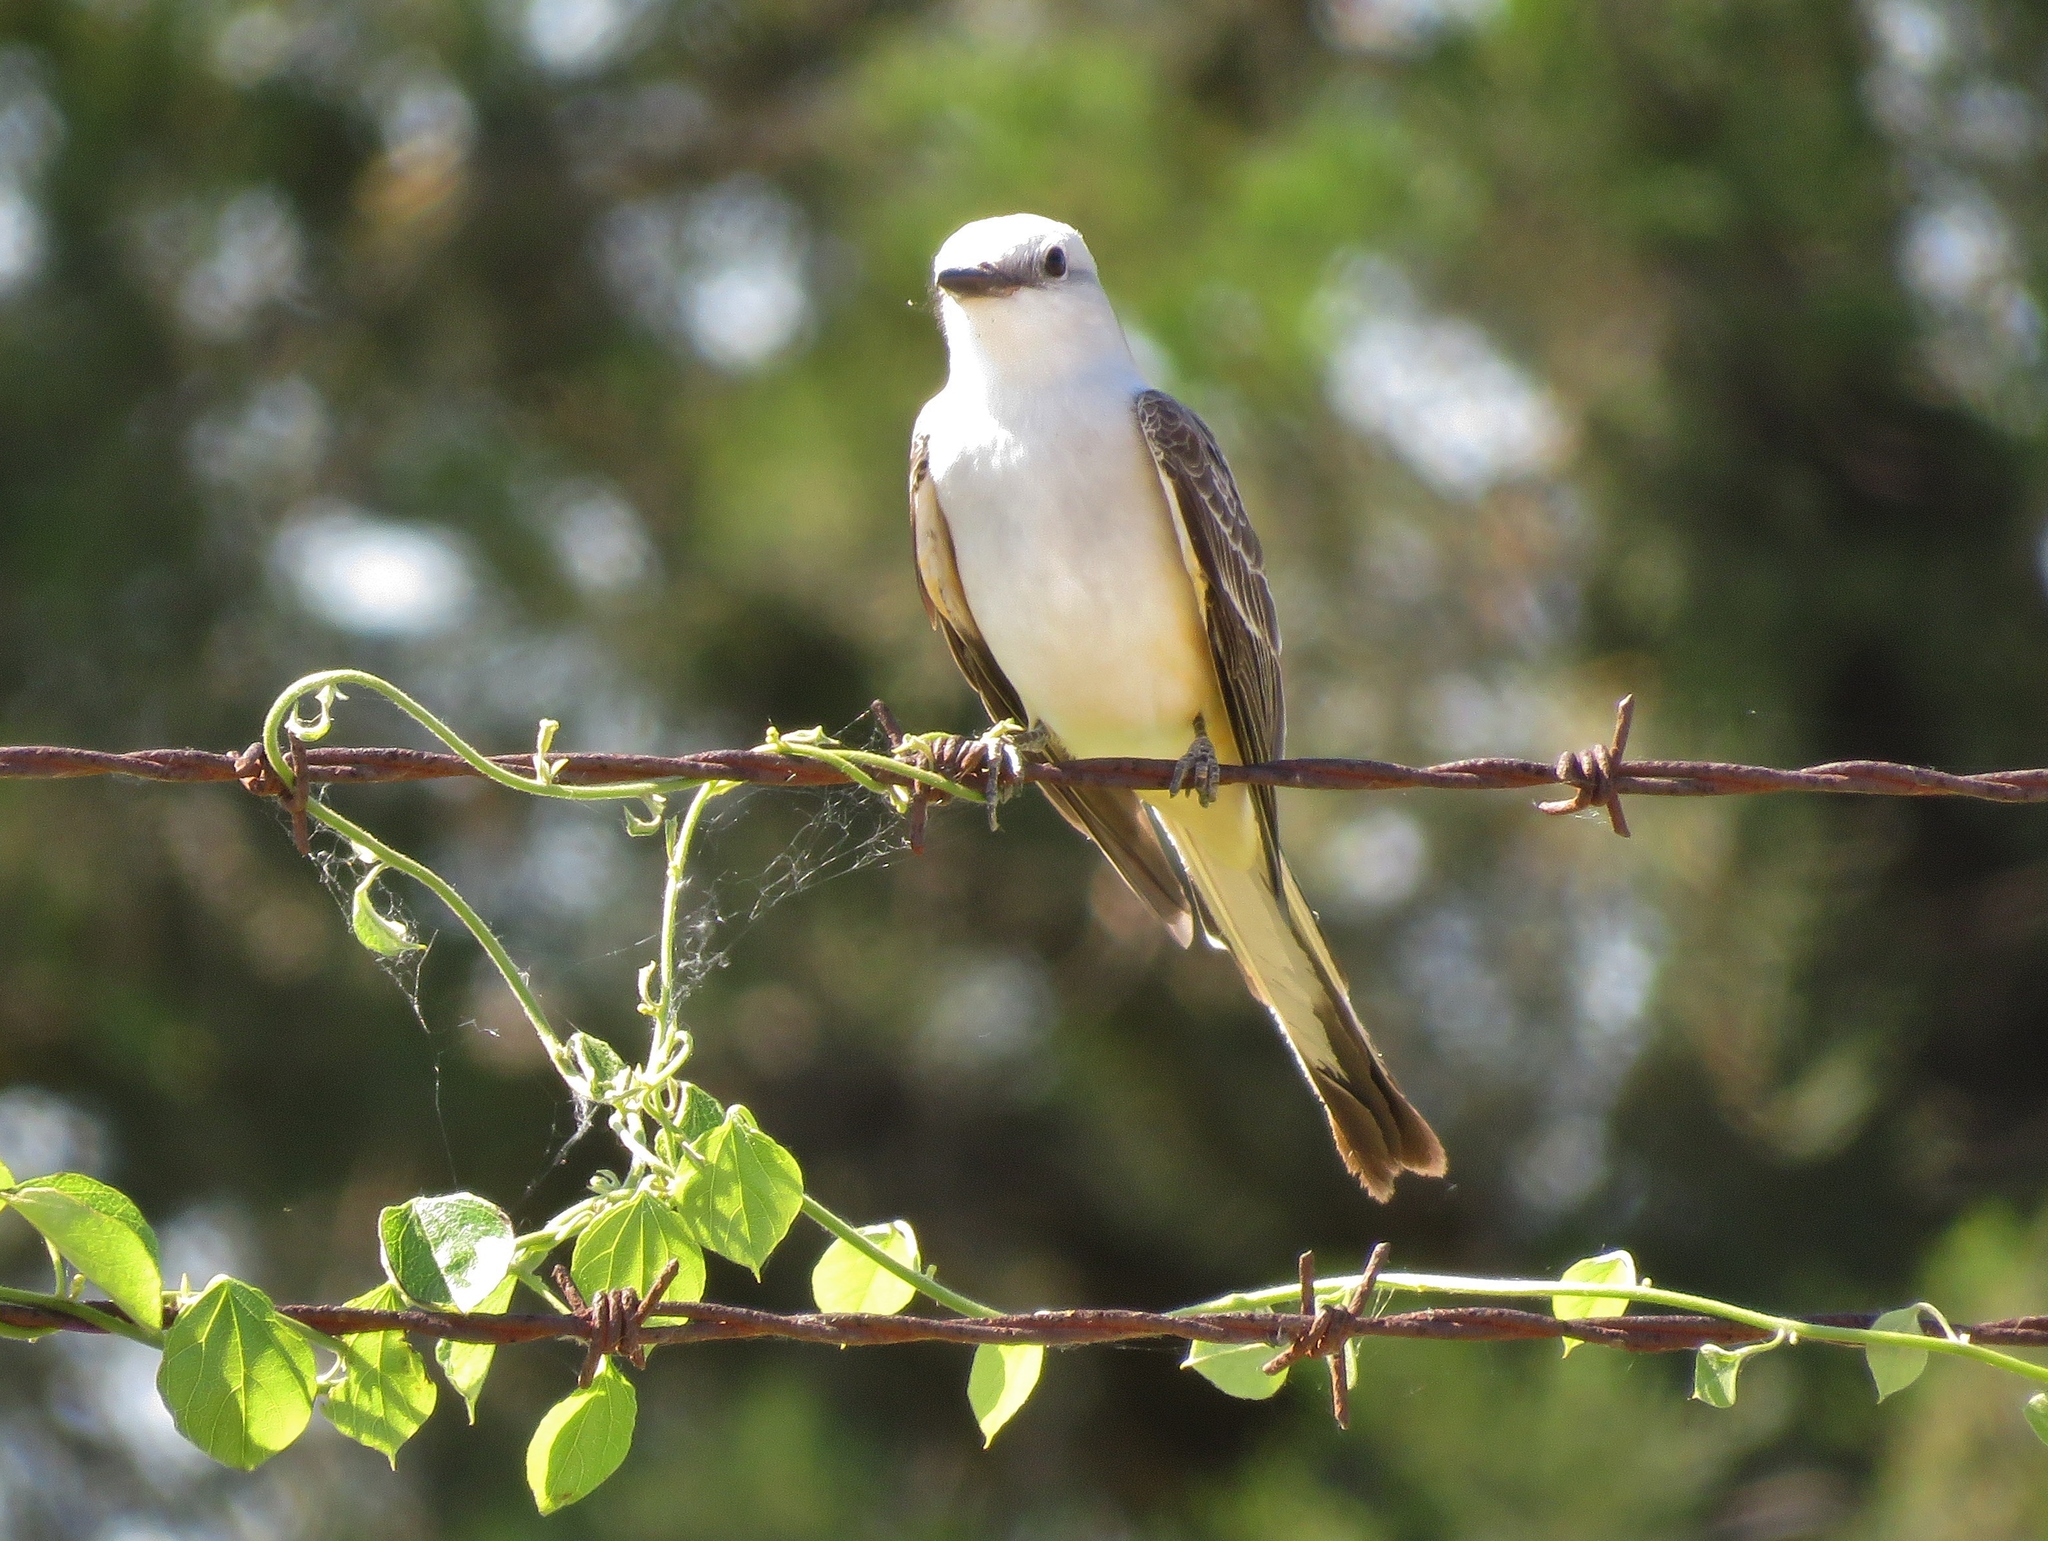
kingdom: Animalia
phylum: Chordata
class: Aves
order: Passeriformes
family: Tyrannidae
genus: Tyrannus
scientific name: Tyrannus forficatus
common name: Scissor-tailed flycatcher
